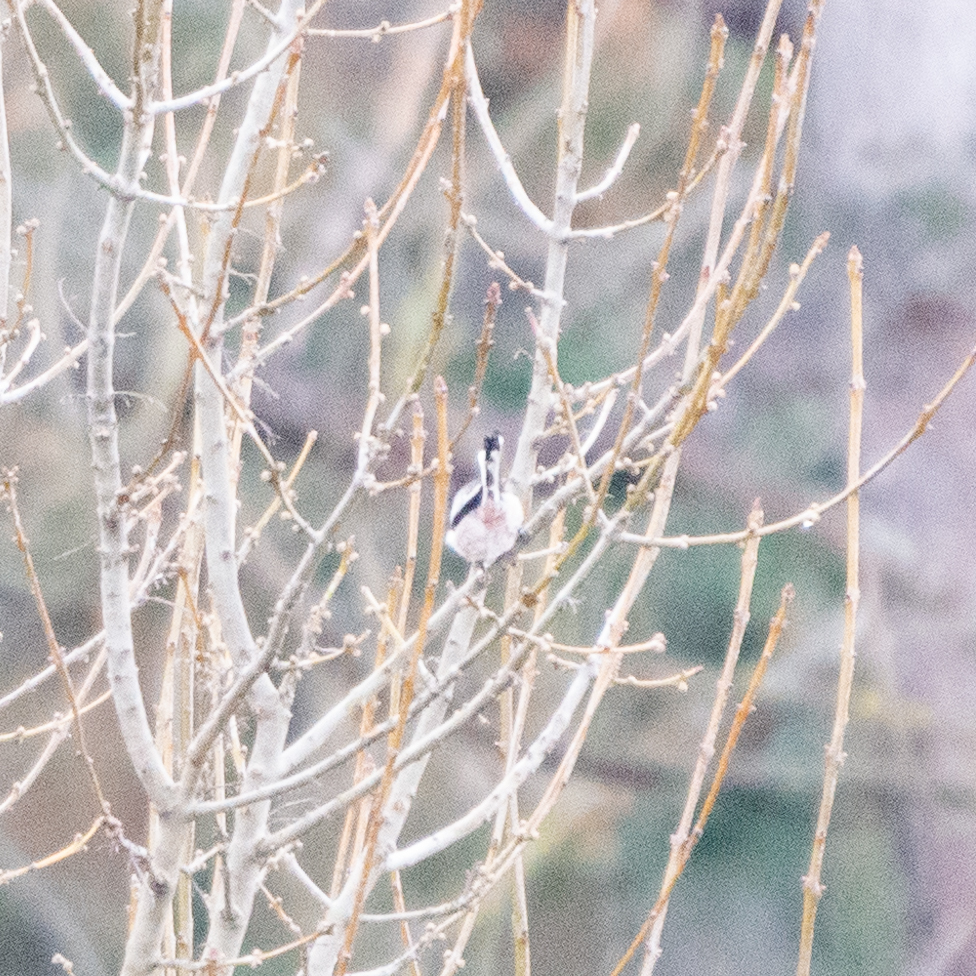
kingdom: Animalia
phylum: Chordata
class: Aves
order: Passeriformes
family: Aegithalidae
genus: Aegithalos
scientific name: Aegithalos caudatus
